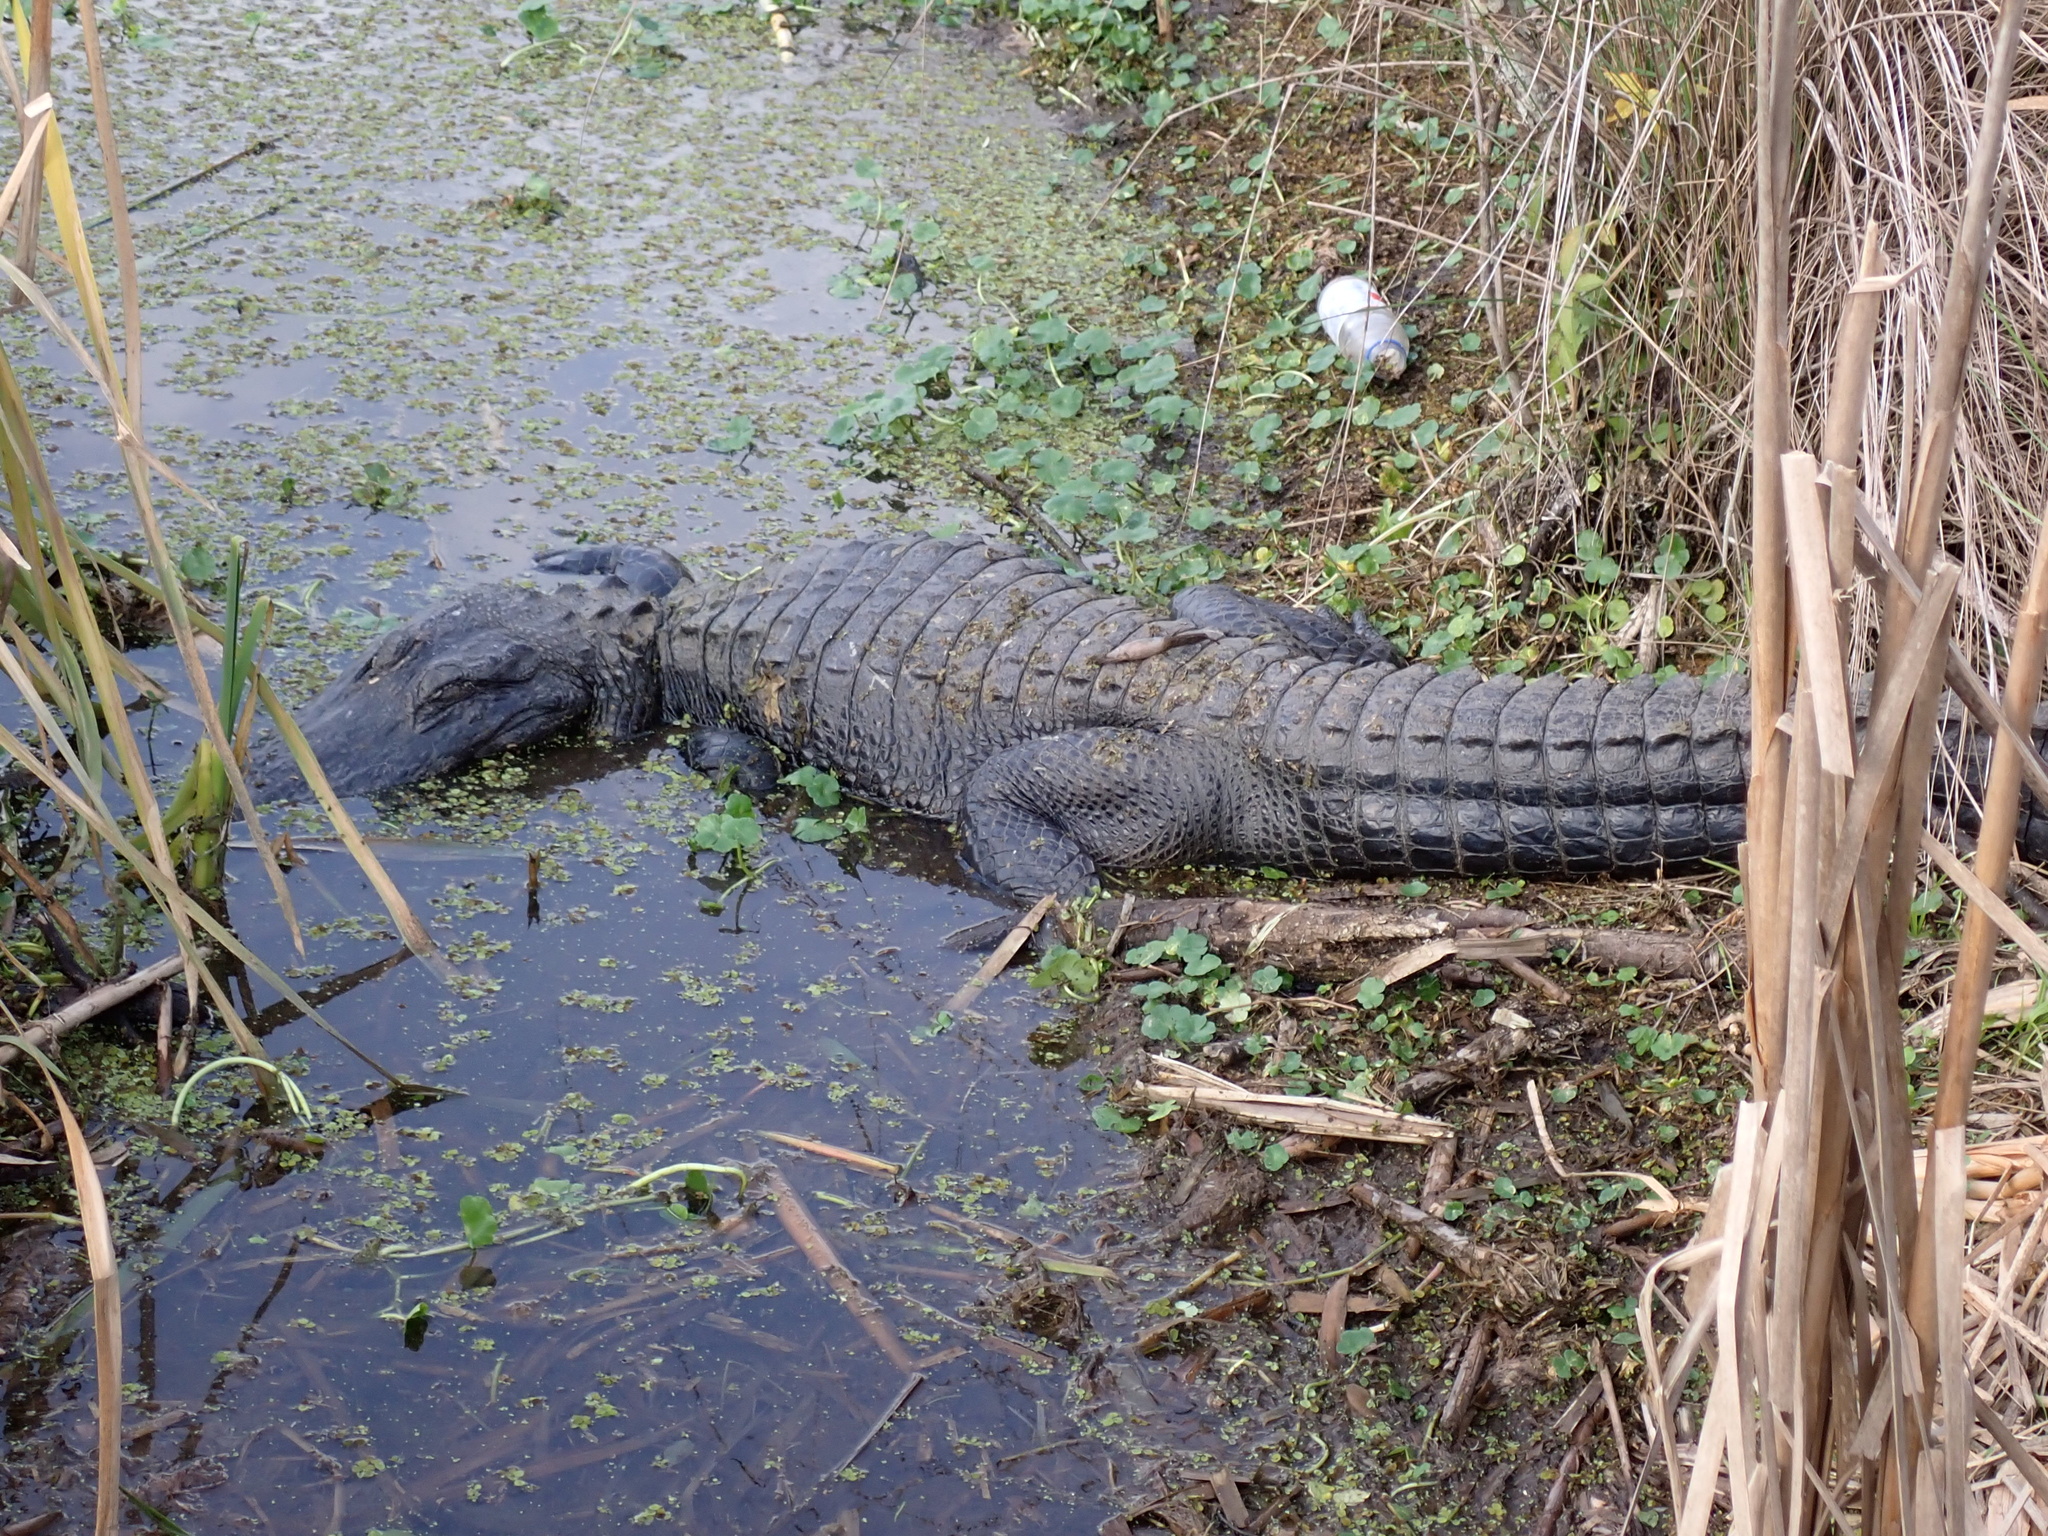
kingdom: Animalia
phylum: Chordata
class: Crocodylia
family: Alligatoridae
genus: Alligator
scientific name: Alligator mississippiensis
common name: American alligator
